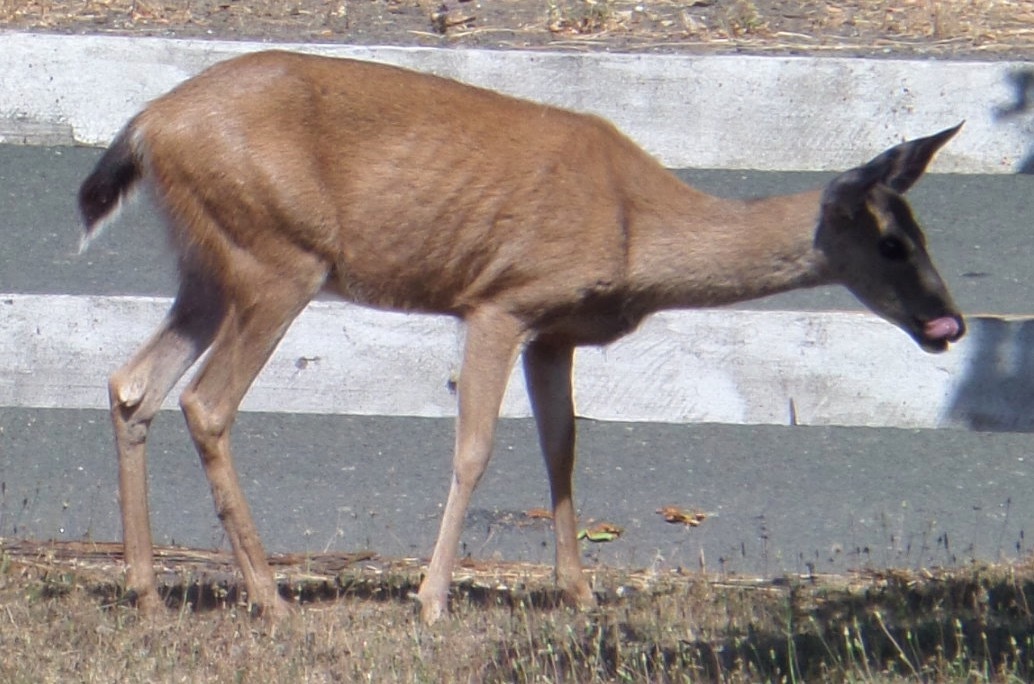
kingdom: Animalia
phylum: Chordata
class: Mammalia
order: Artiodactyla
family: Cervidae
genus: Odocoileus
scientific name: Odocoileus hemionus
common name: Mule deer
